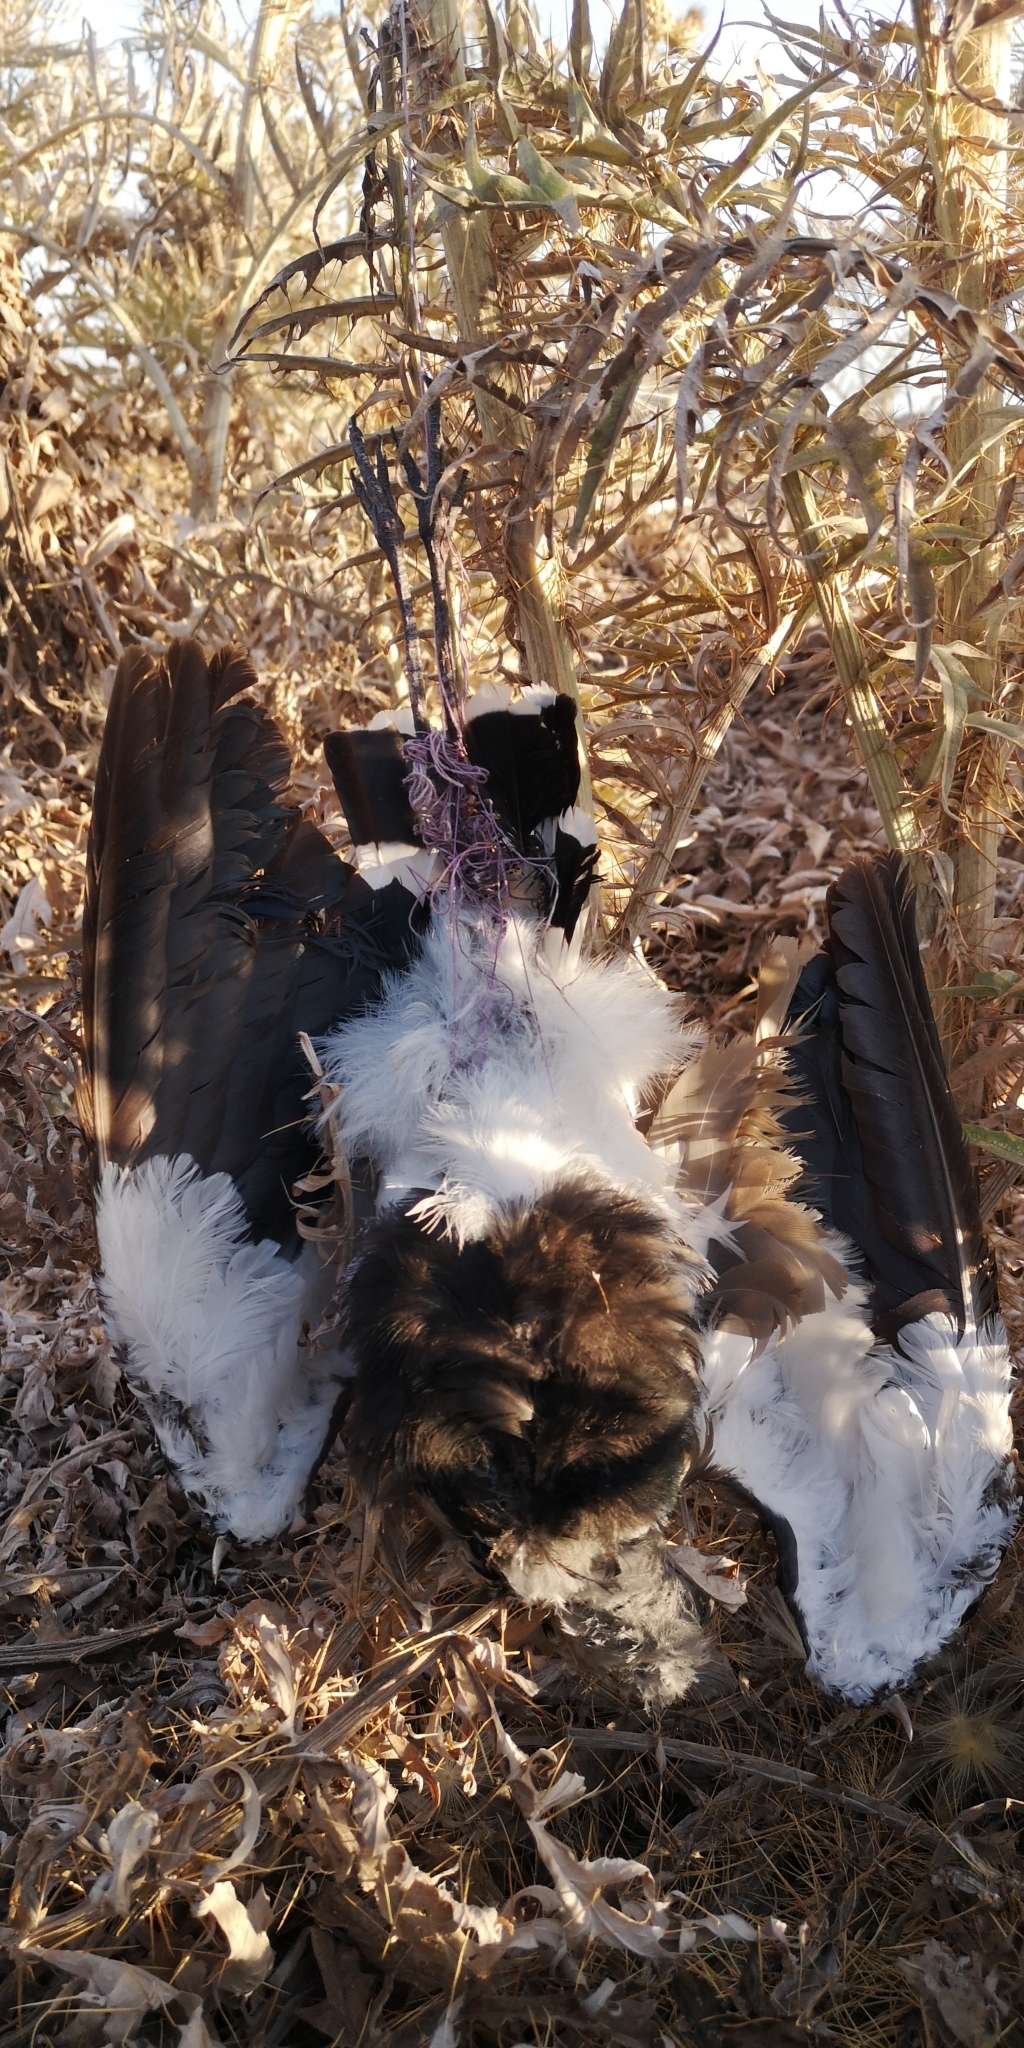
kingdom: Animalia
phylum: Chordata
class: Aves
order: Charadriiformes
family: Charadriidae
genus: Vanellus
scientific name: Vanellus chilensis
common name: Southern lapwing
